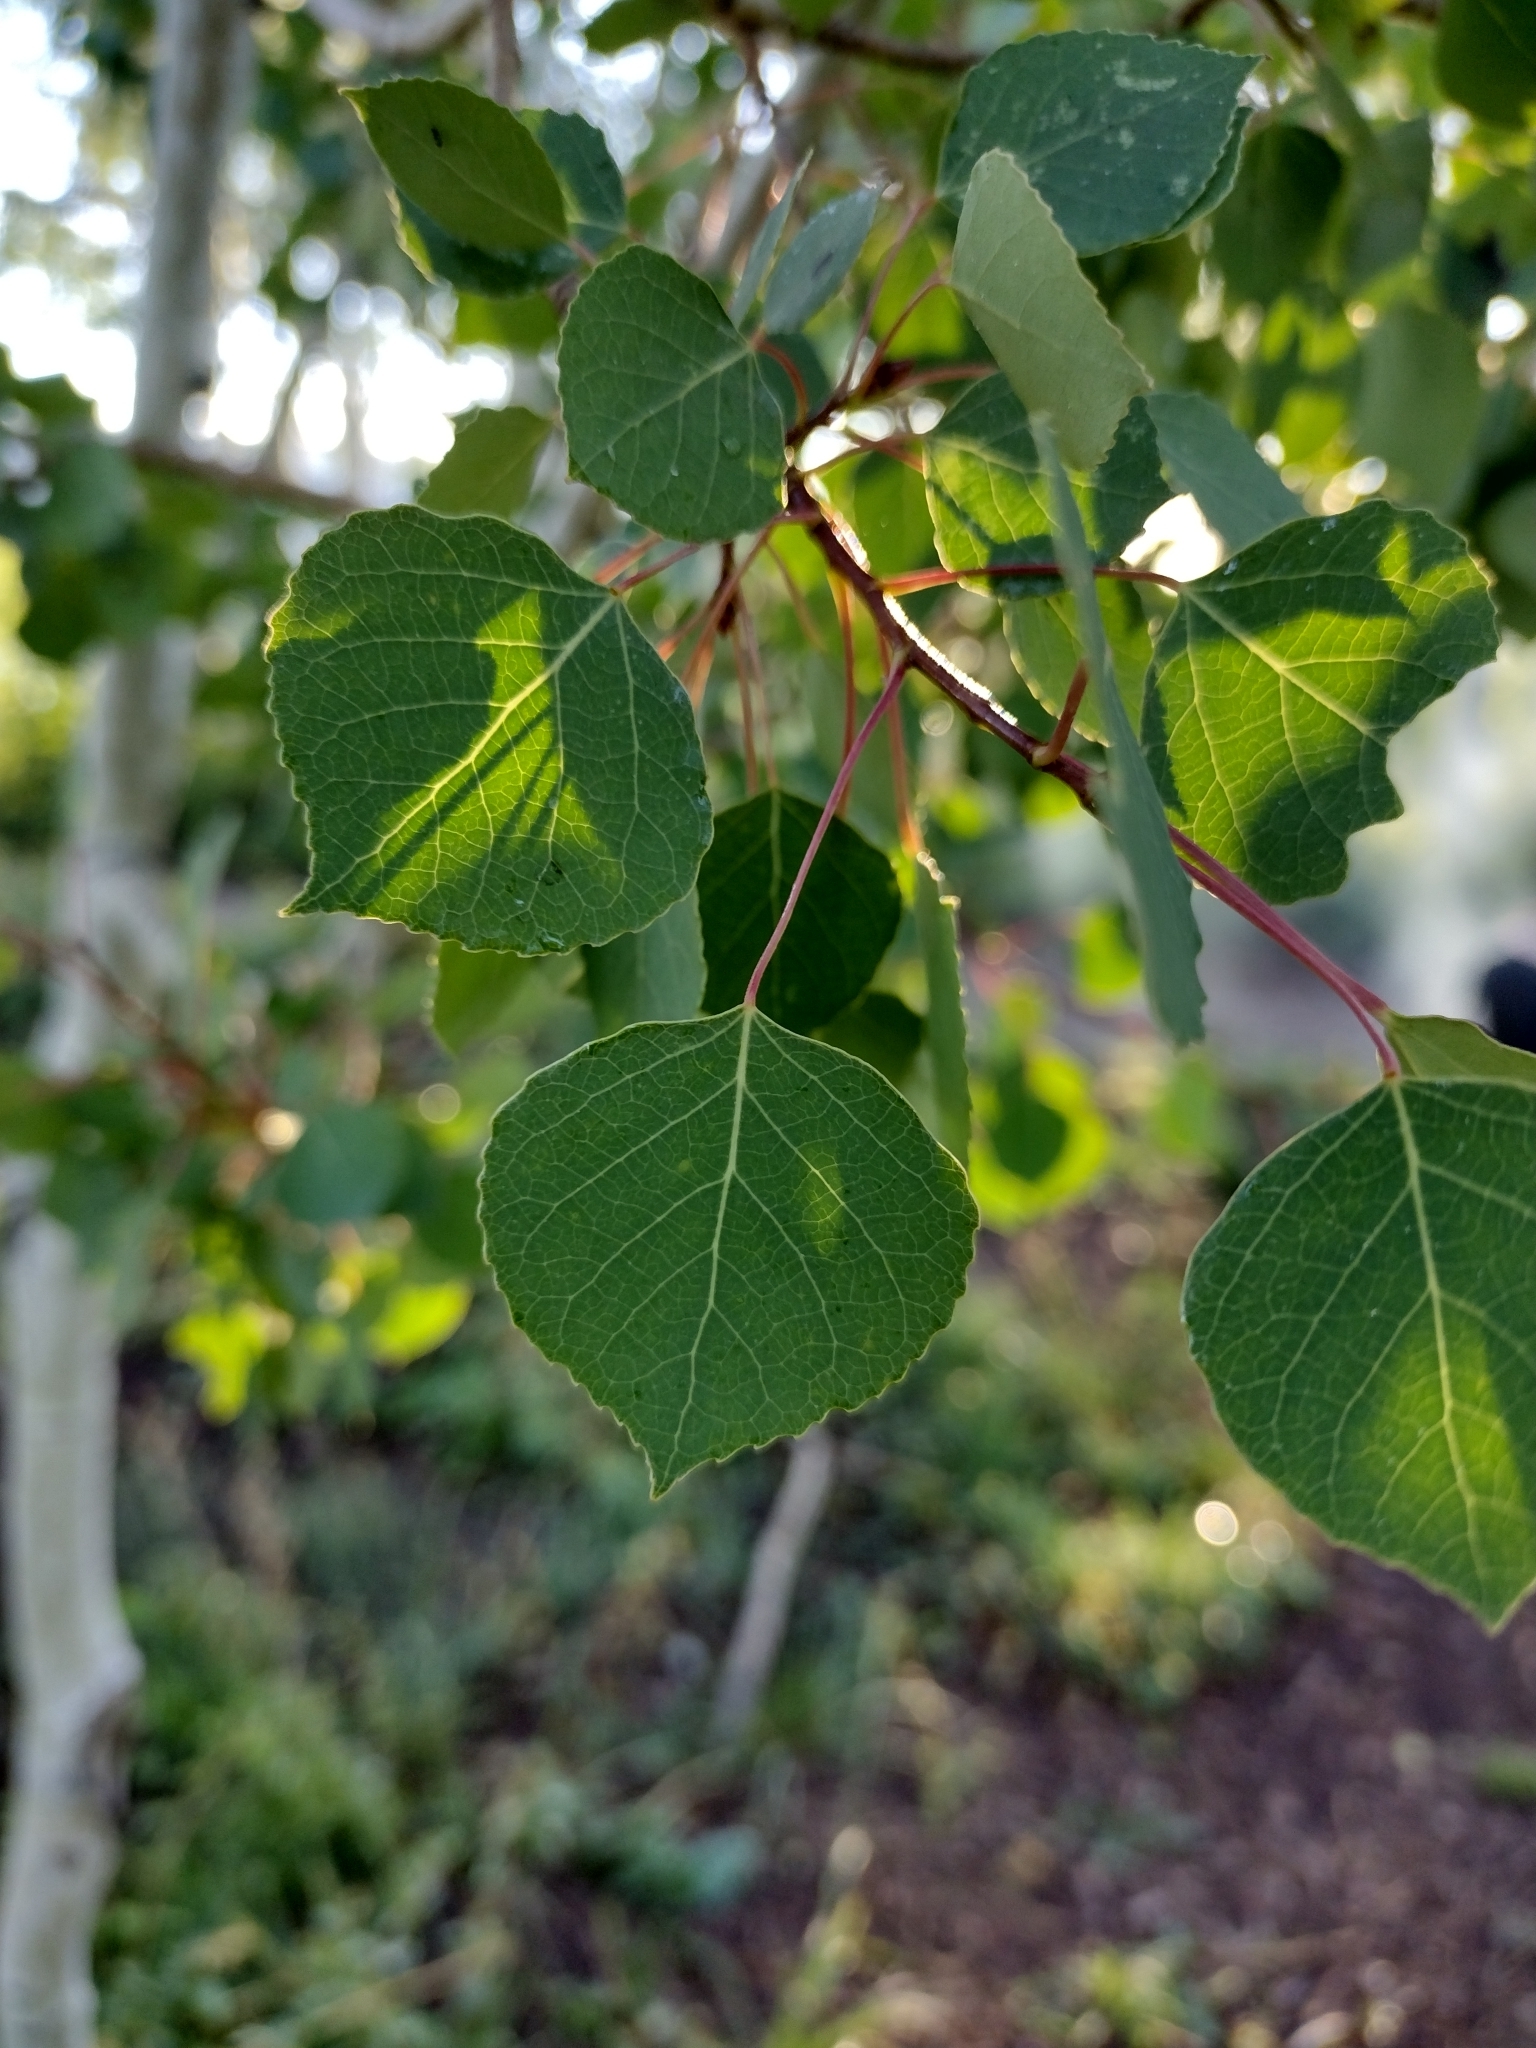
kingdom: Plantae
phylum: Tracheophyta
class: Magnoliopsida
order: Malpighiales
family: Salicaceae
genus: Populus
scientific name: Populus tremuloides
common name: Quaking aspen
